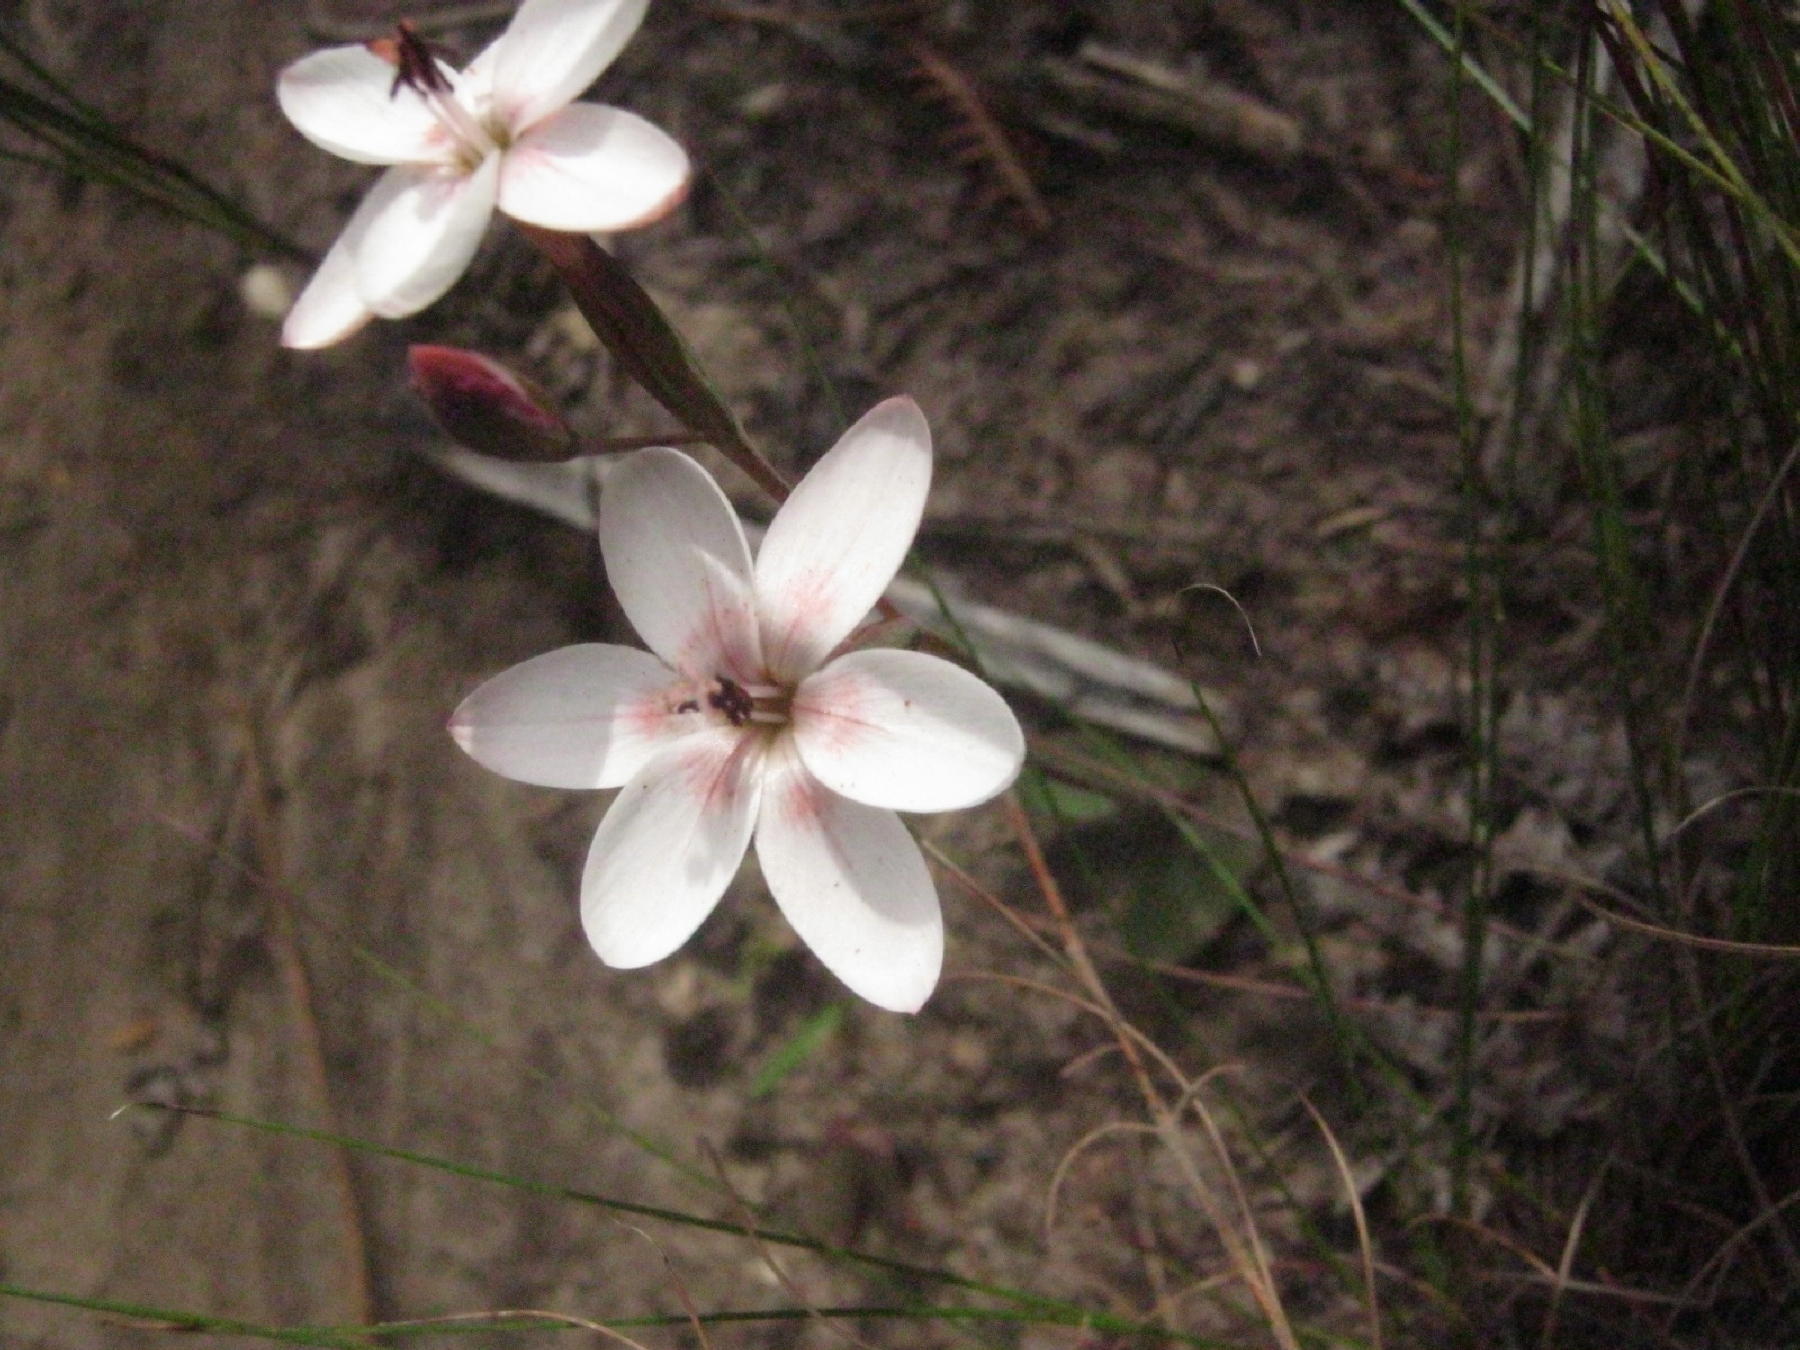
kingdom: Plantae
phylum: Tracheophyta
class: Liliopsida
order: Asparagales
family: Iridaceae
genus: Geissorhiza
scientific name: Geissorhiza ovata
